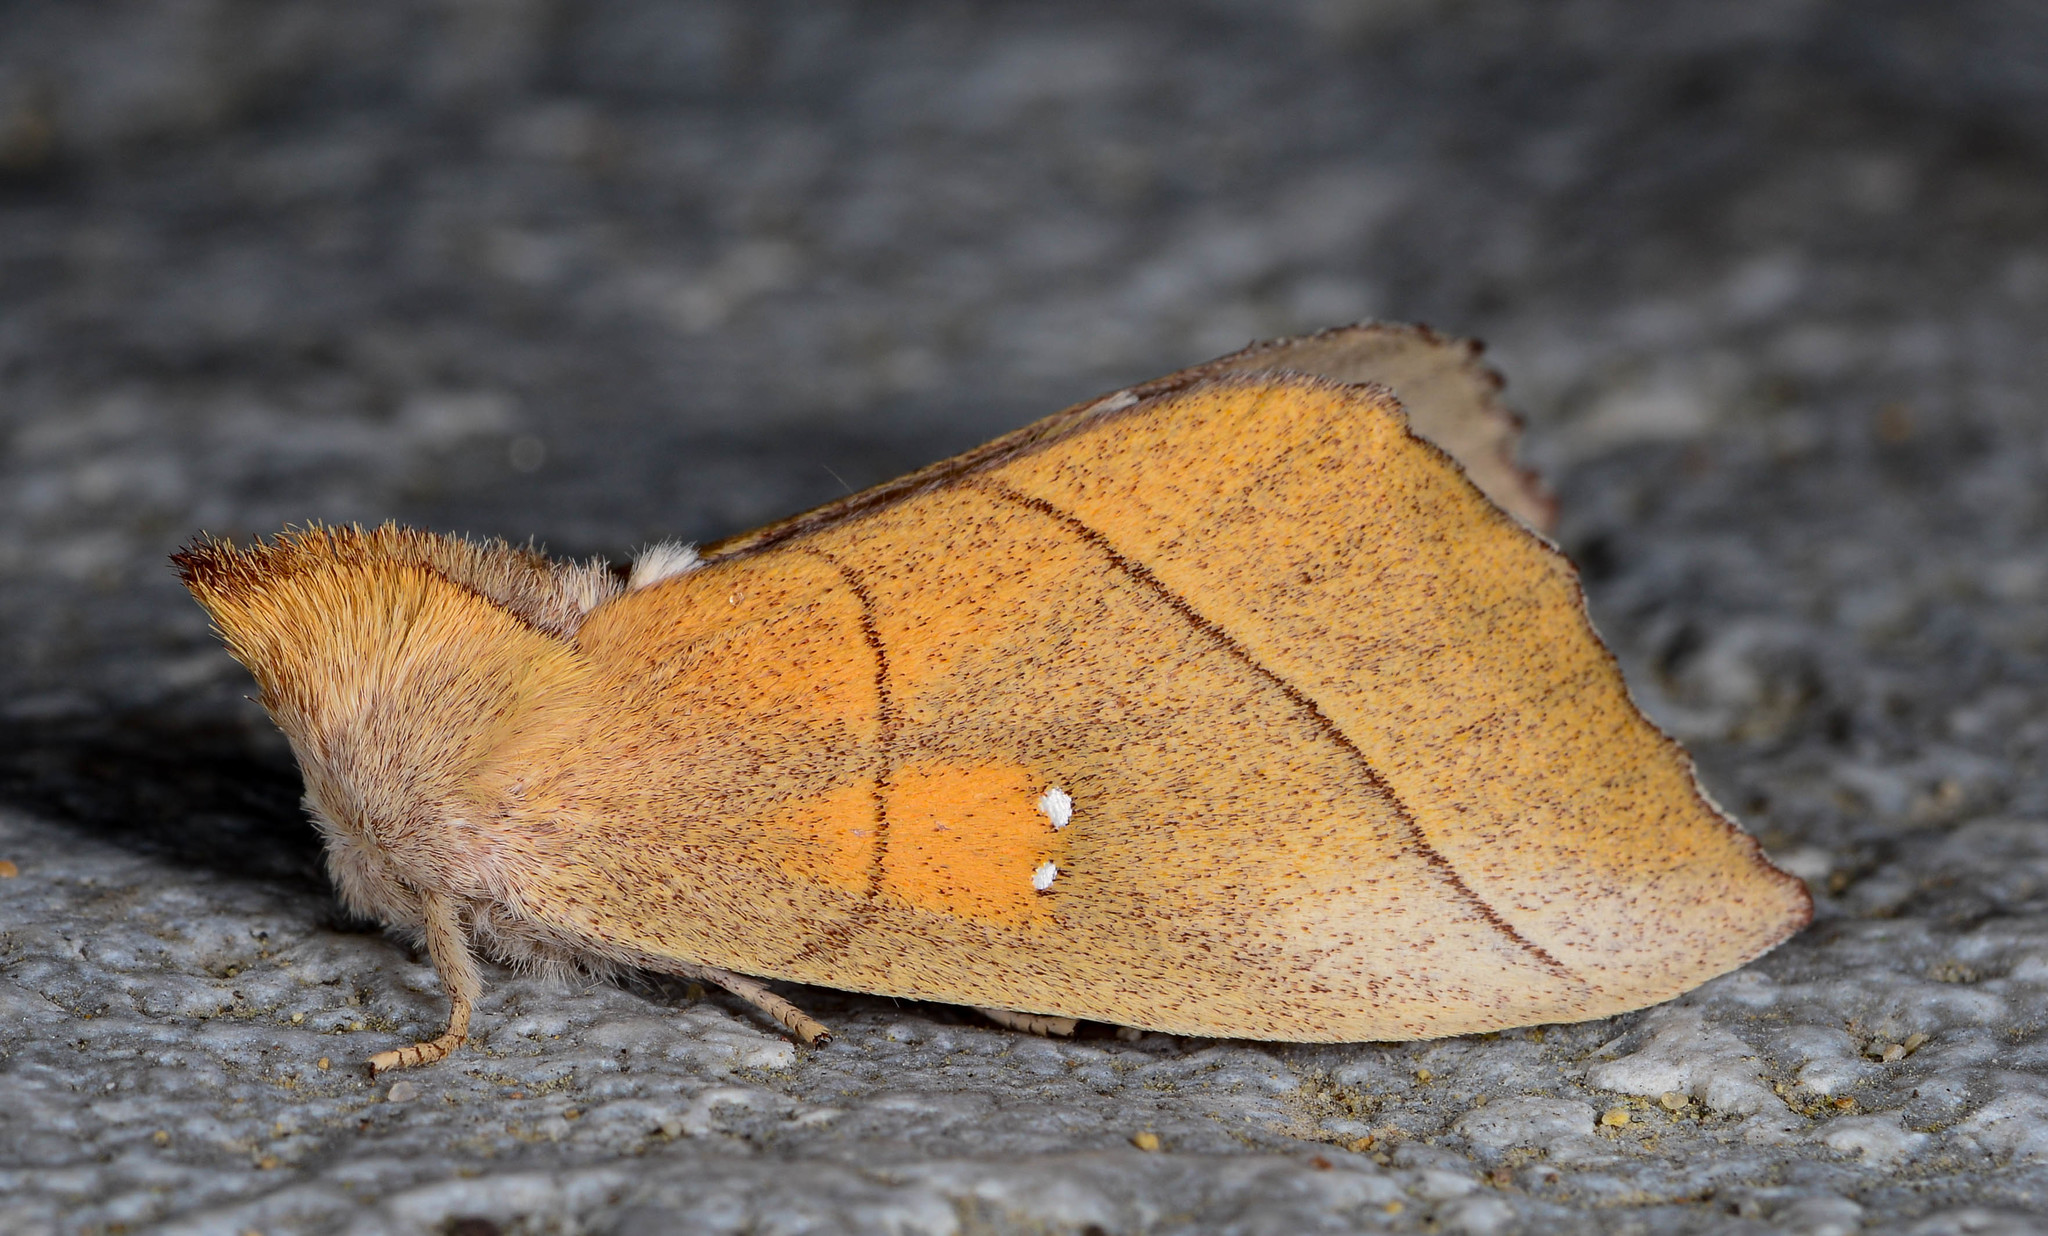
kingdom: Animalia
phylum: Arthropoda
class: Insecta
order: Lepidoptera
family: Notodontidae
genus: Nadata
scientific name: Nadata gibbosa
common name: White-dotted prominent
